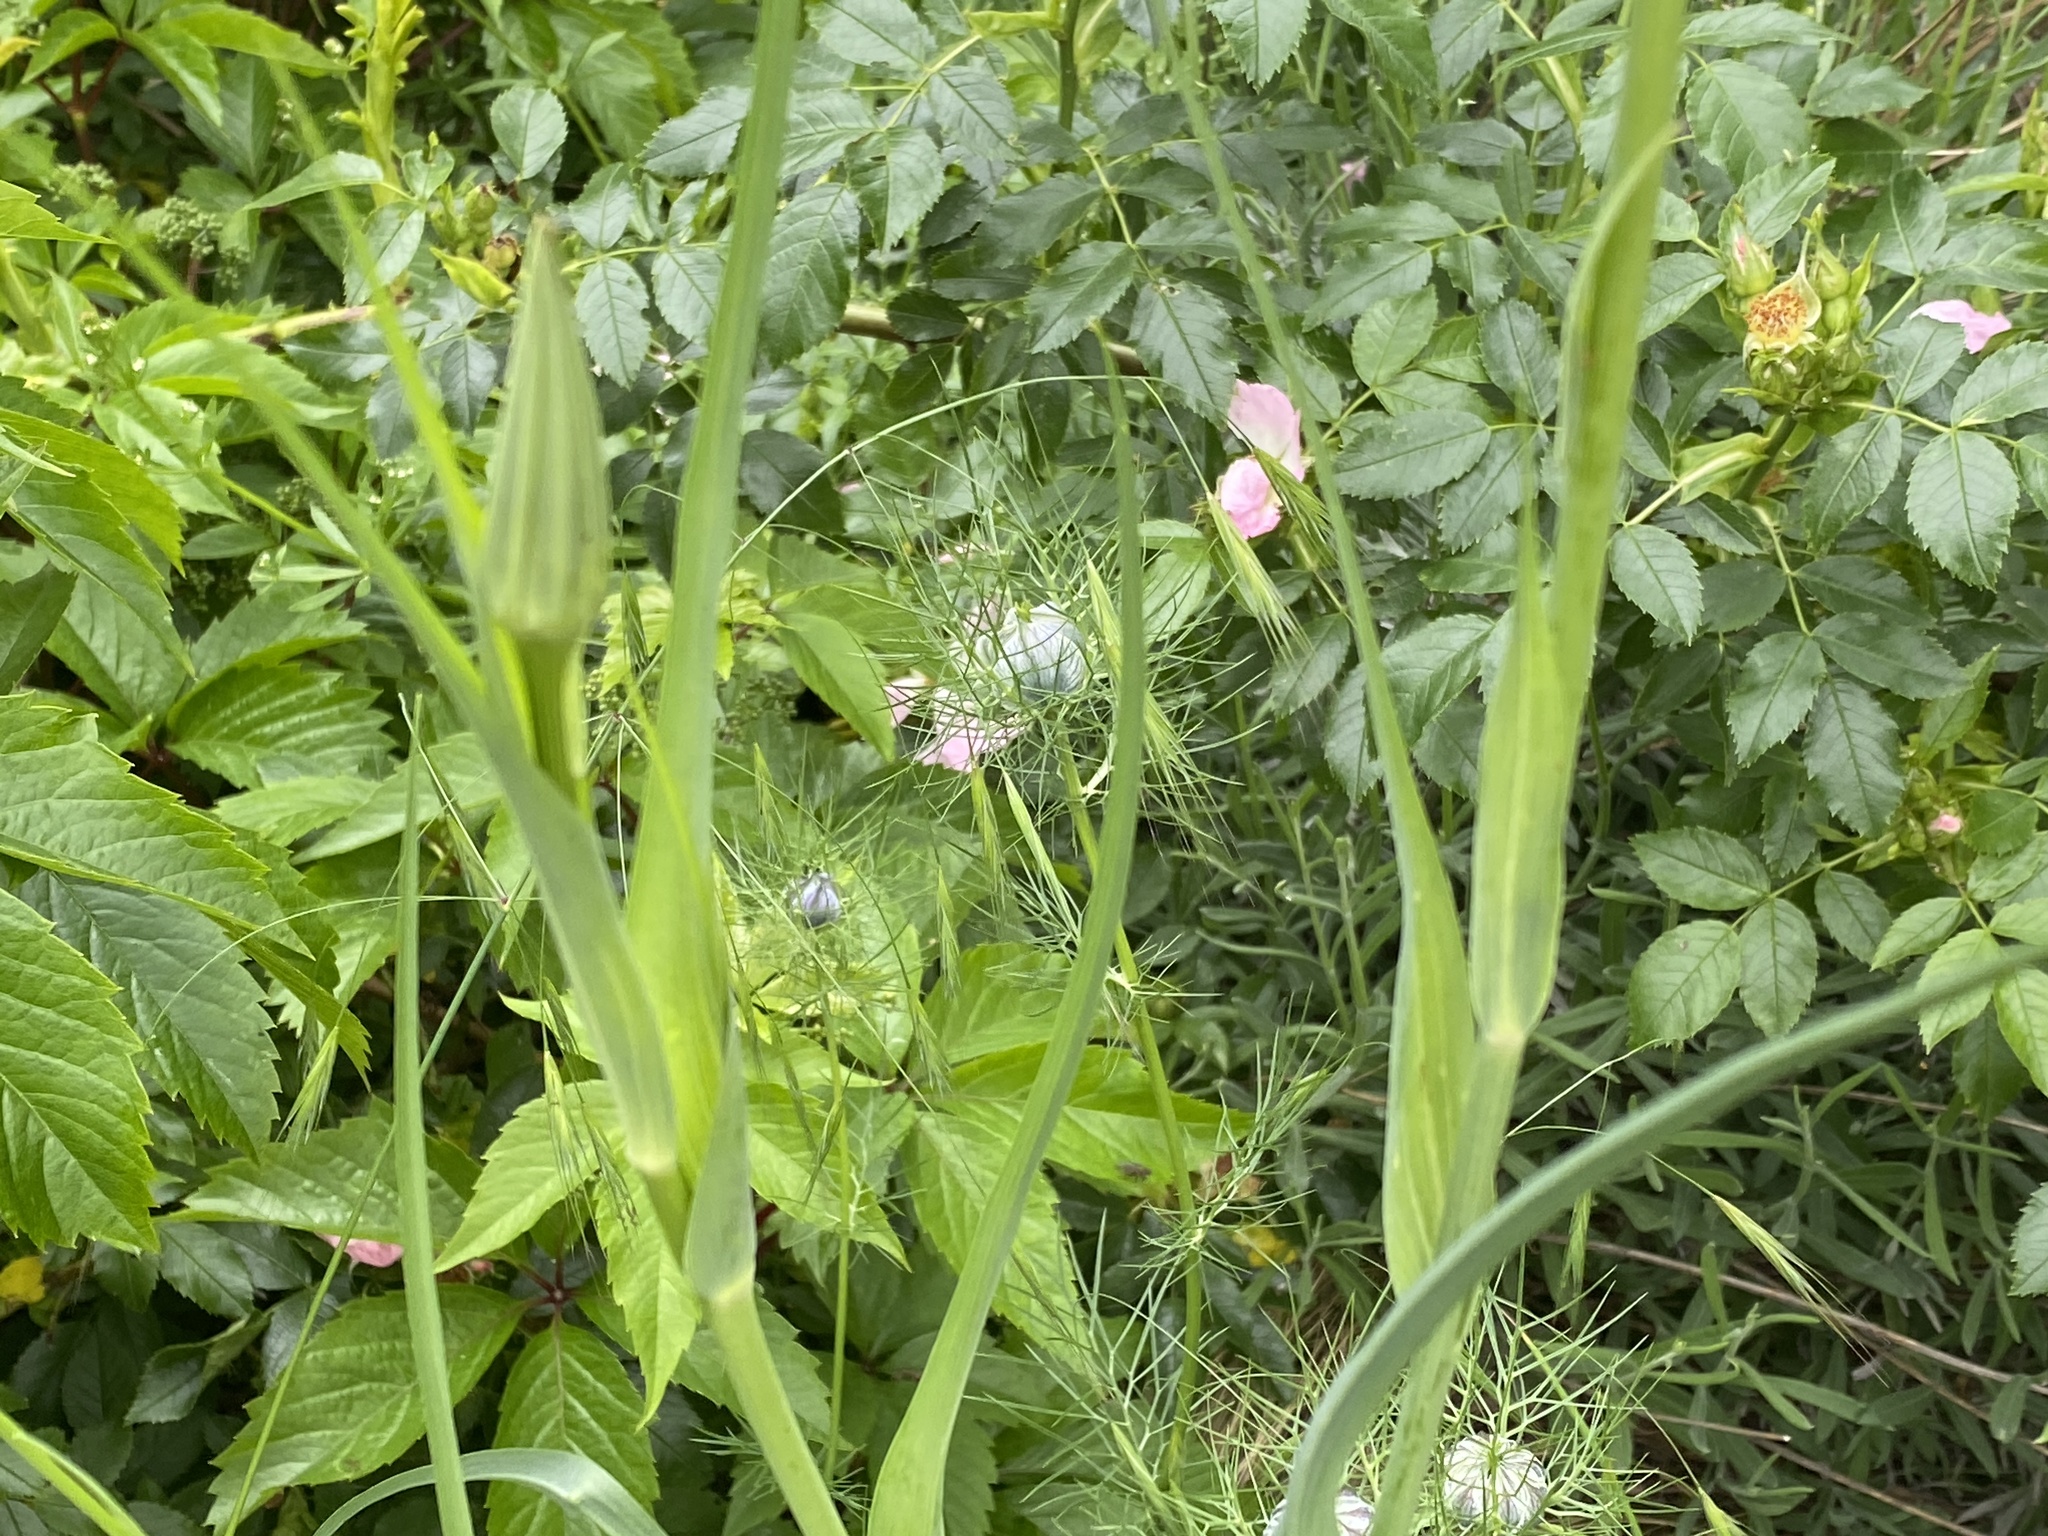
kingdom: Plantae
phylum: Tracheophyta
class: Magnoliopsida
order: Asterales
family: Asteraceae
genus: Tragopogon
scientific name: Tragopogon porrifolius
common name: Salsify
